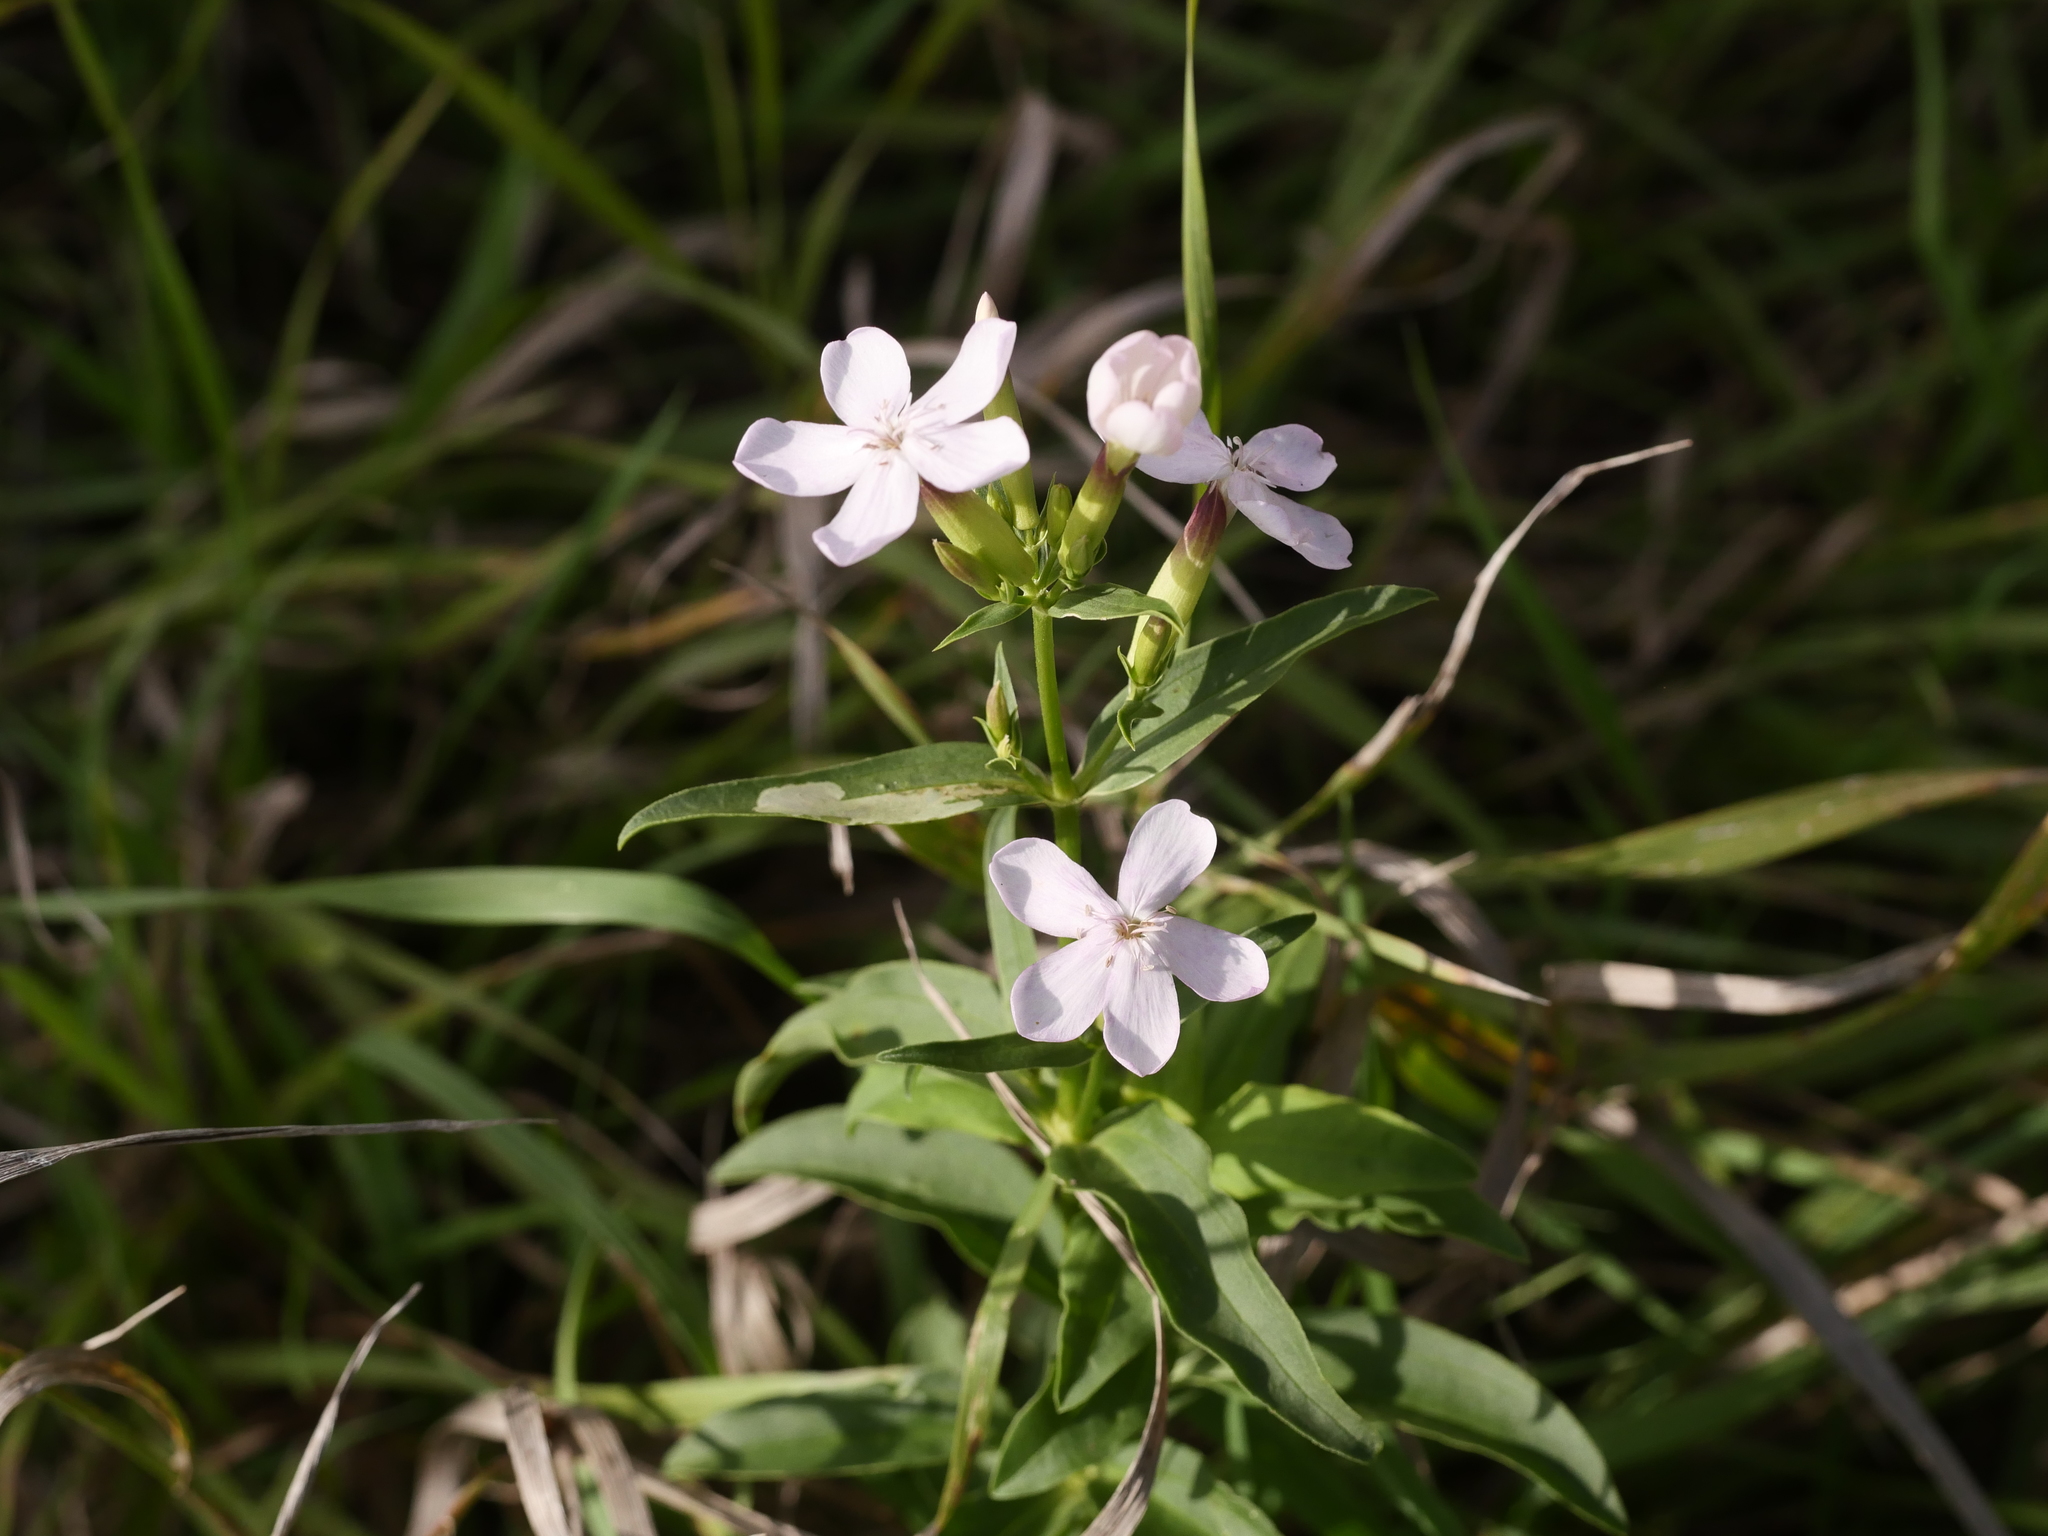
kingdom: Plantae
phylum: Tracheophyta
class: Magnoliopsida
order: Caryophyllales
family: Caryophyllaceae
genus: Saponaria
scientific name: Saponaria officinalis
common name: Soapwort
